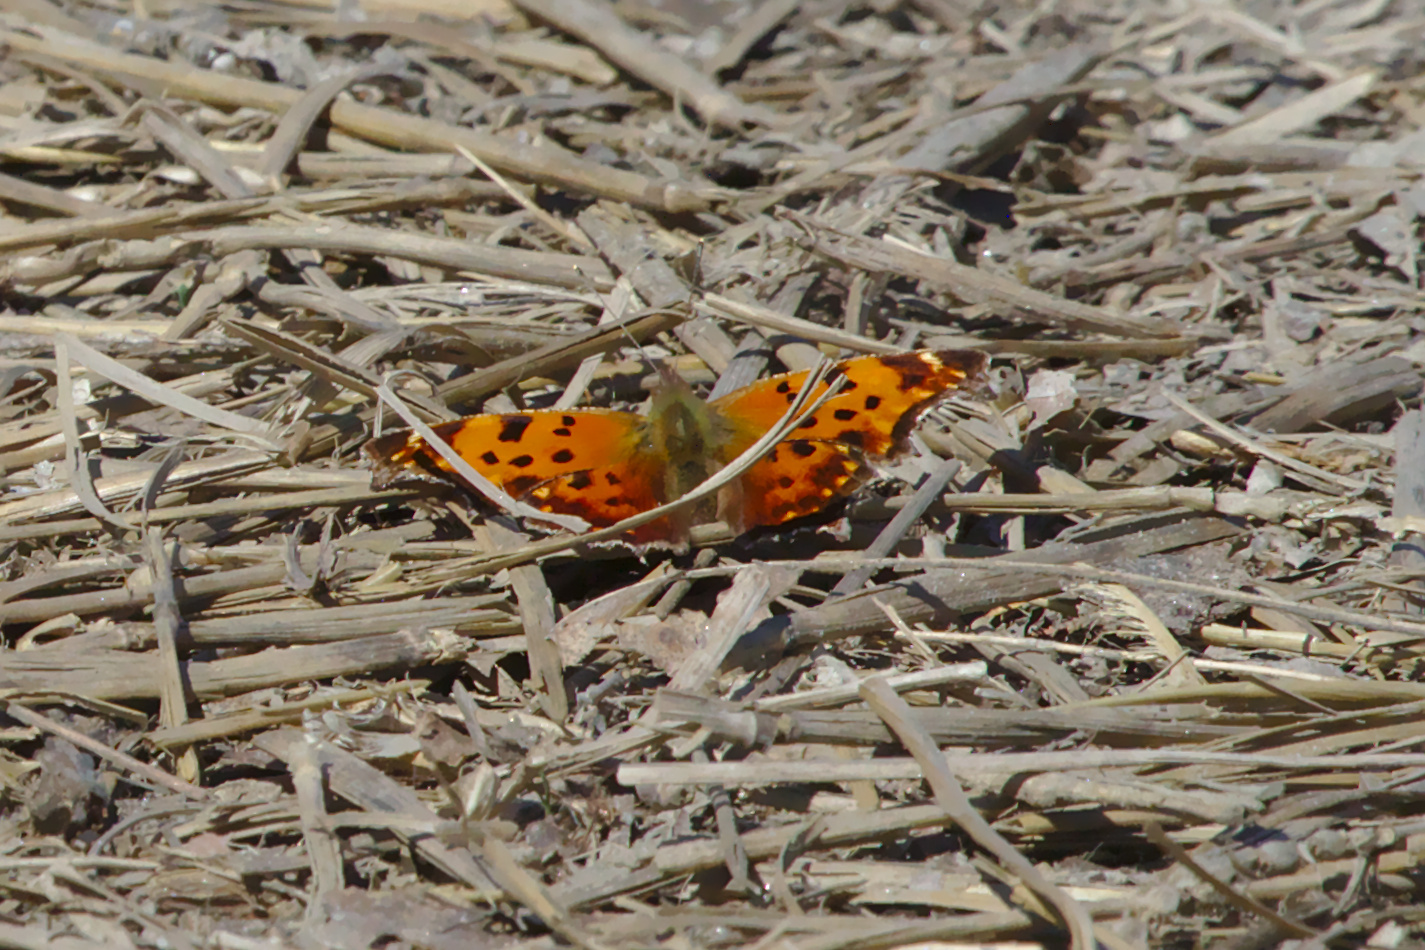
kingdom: Animalia
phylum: Arthropoda
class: Insecta
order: Lepidoptera
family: Nymphalidae
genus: Polygonia
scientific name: Polygonia comma
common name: Eastern comma
